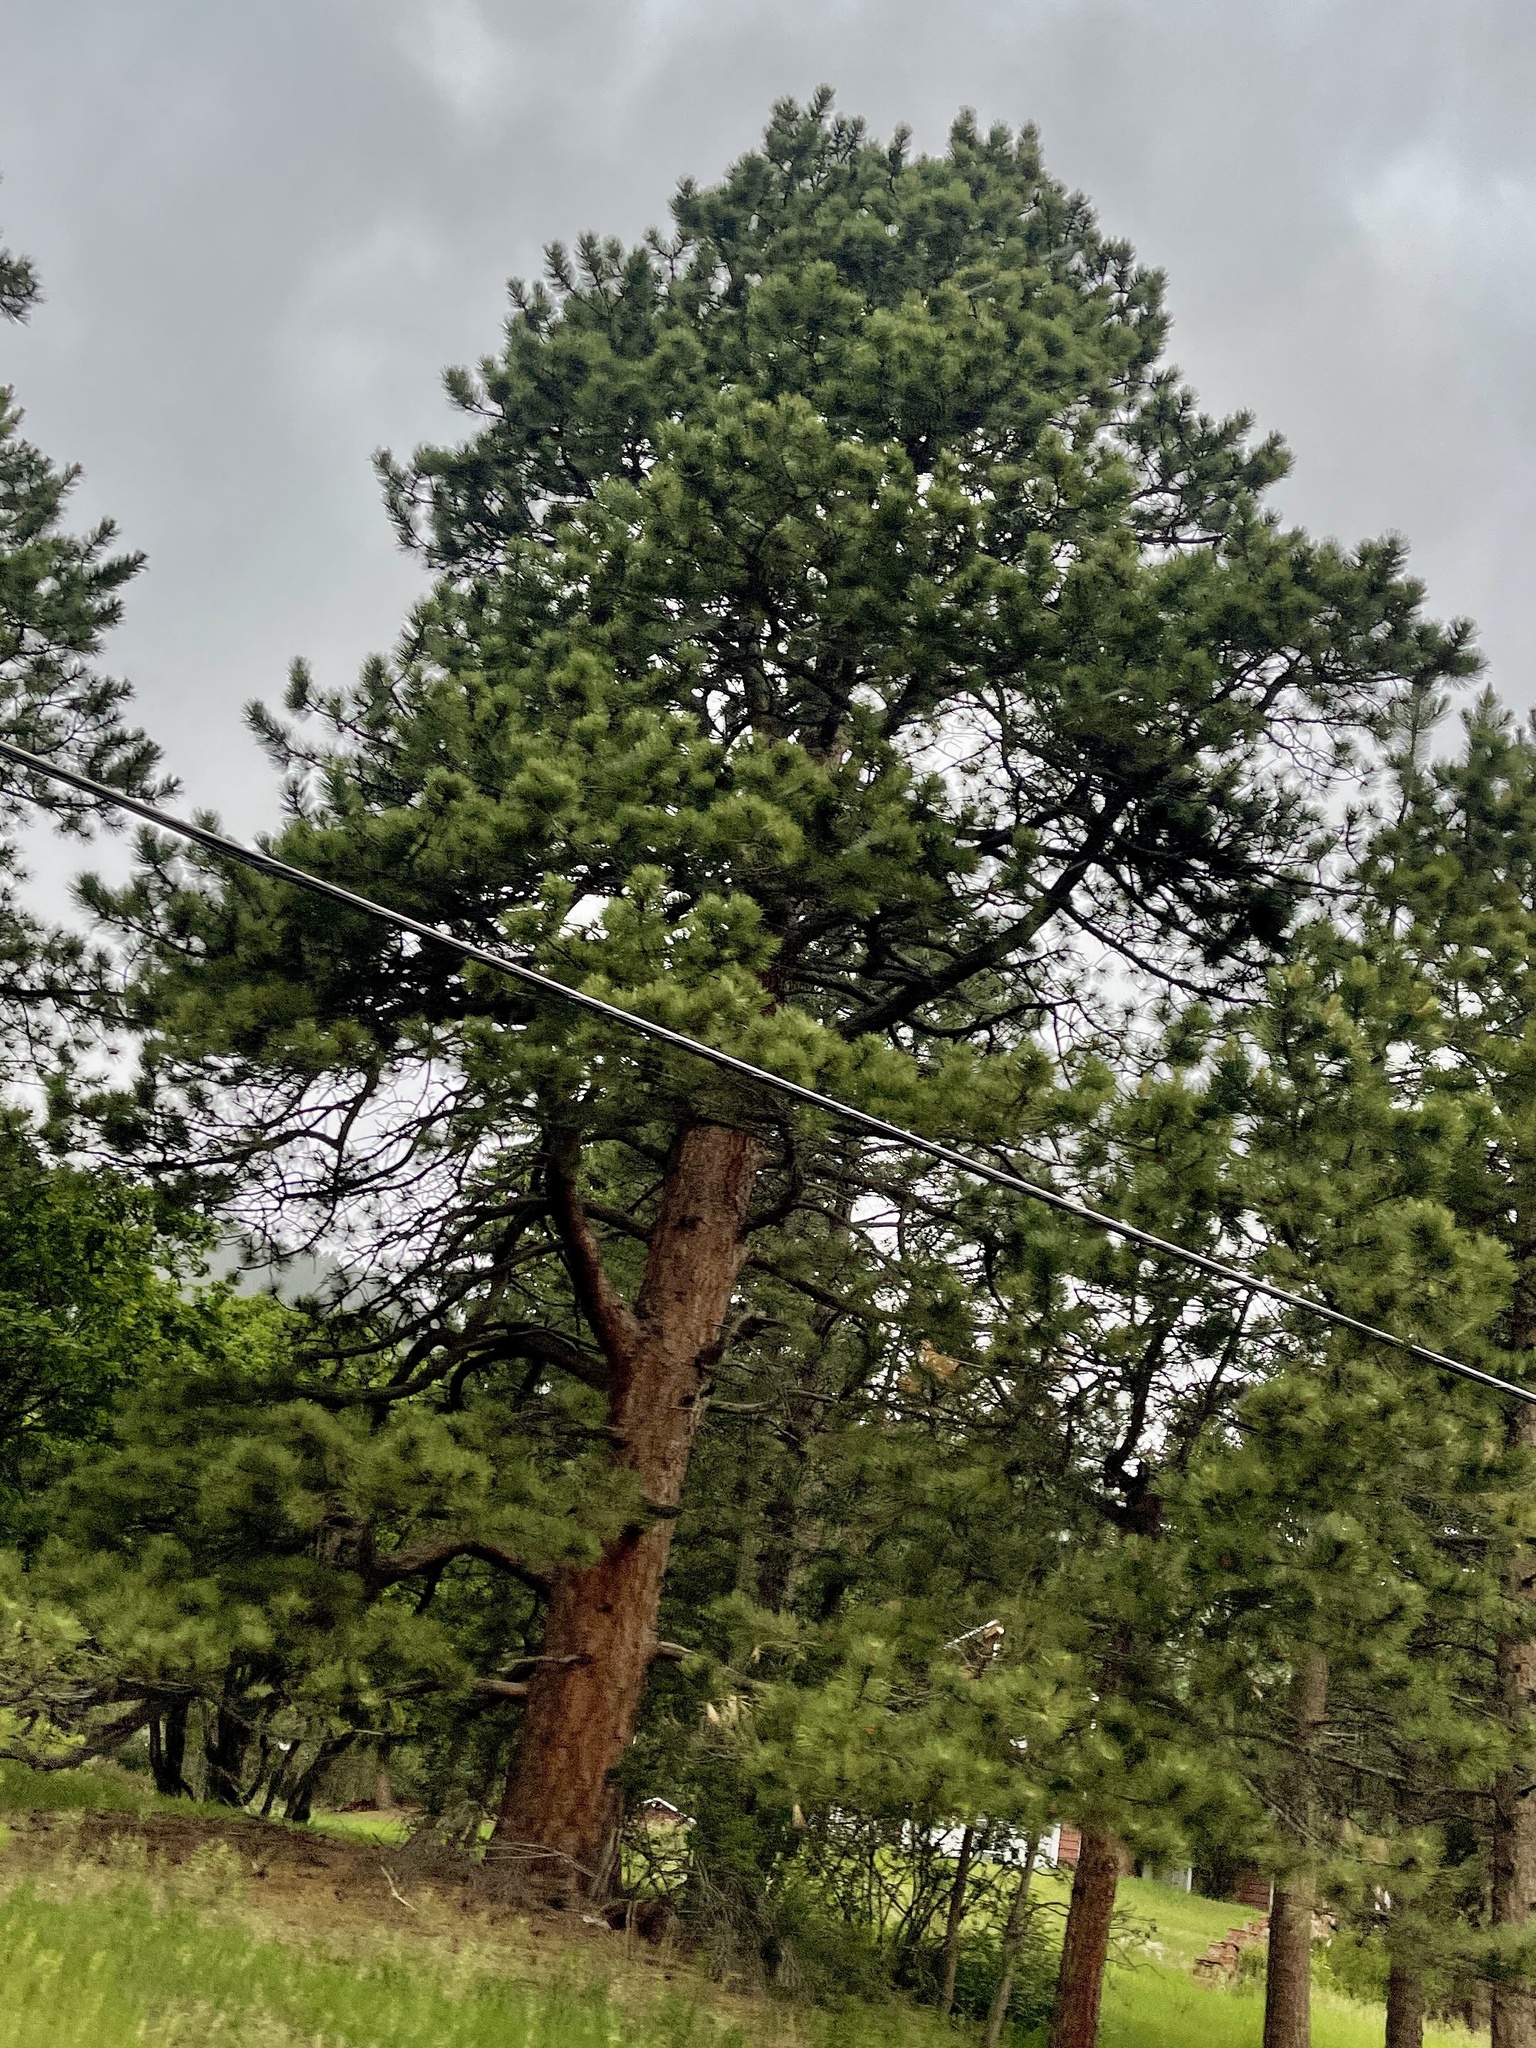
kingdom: Plantae
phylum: Tracheophyta
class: Pinopsida
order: Pinales
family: Pinaceae
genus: Pinus
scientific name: Pinus ponderosa
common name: Western yellow-pine
